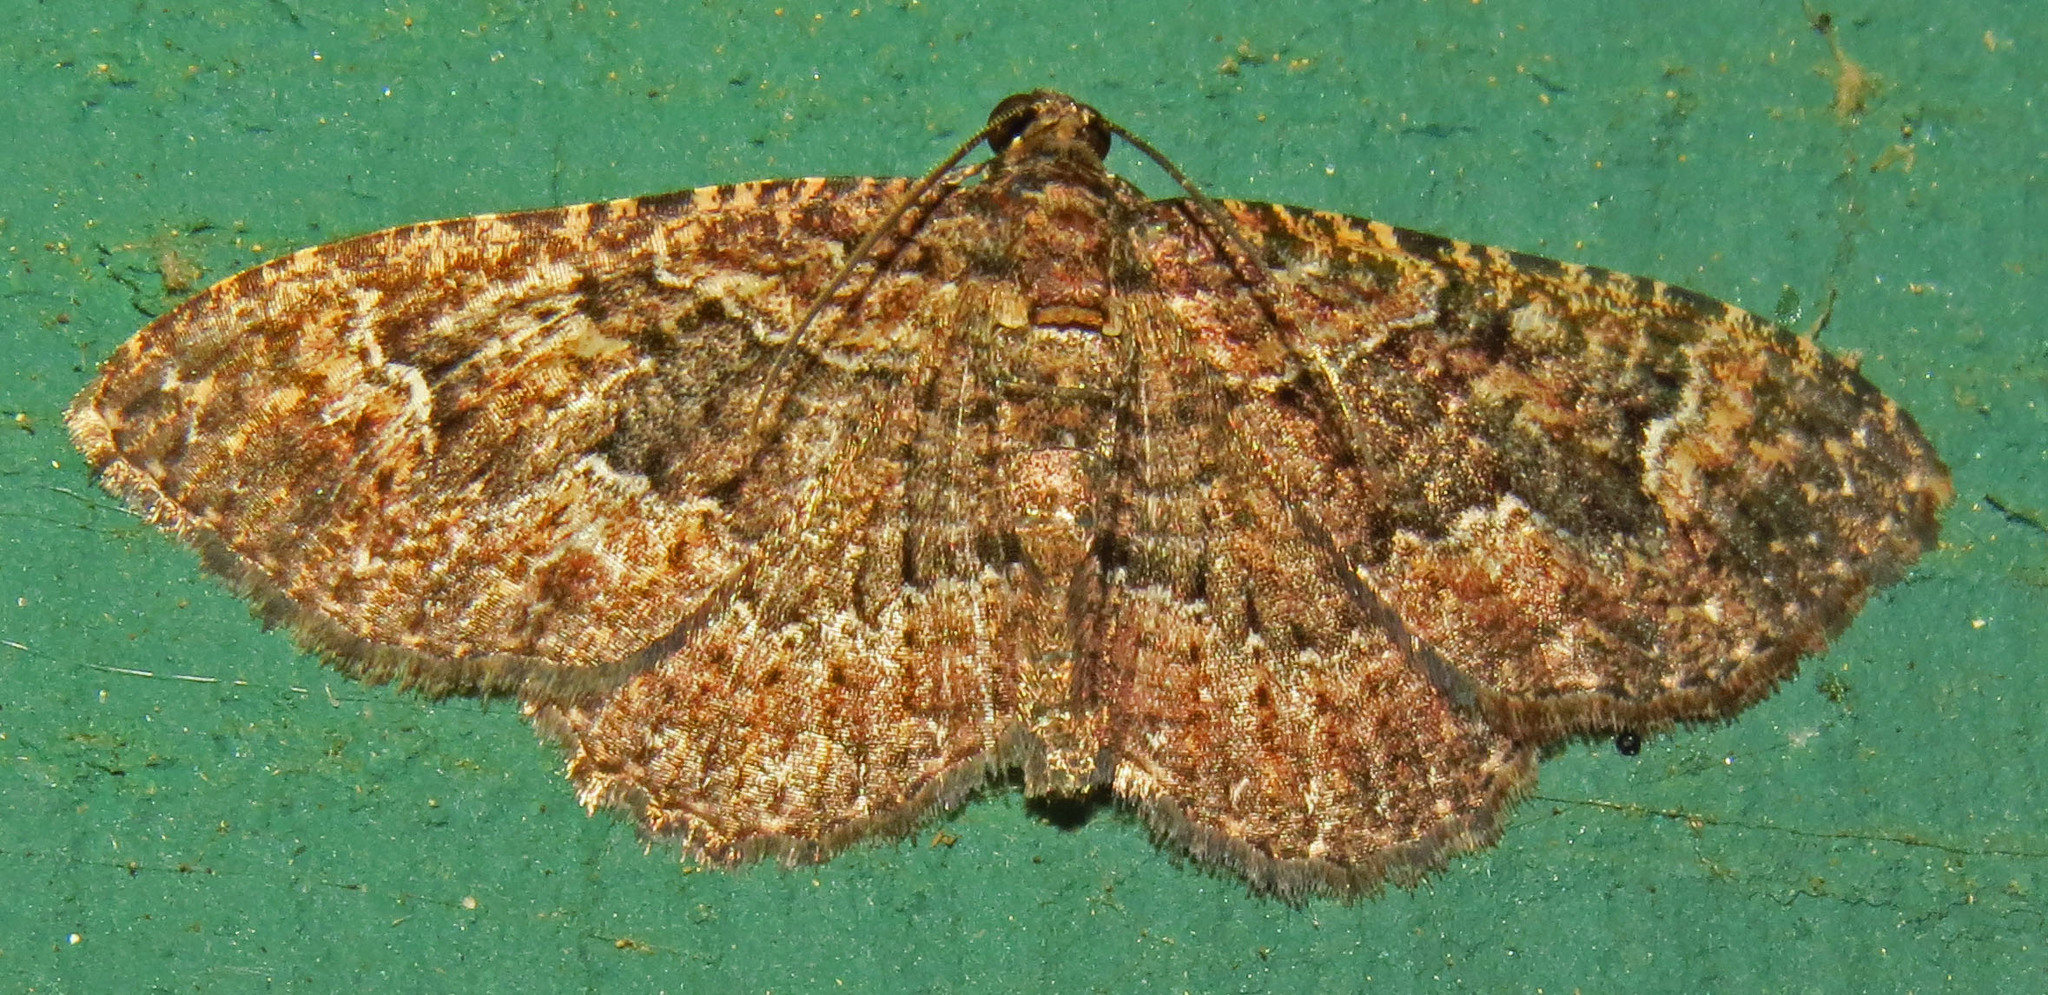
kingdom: Animalia
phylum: Arthropoda
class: Insecta
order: Lepidoptera
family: Geometridae
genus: Disclisioprocta
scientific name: Disclisioprocta stellata
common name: Somber carpet
